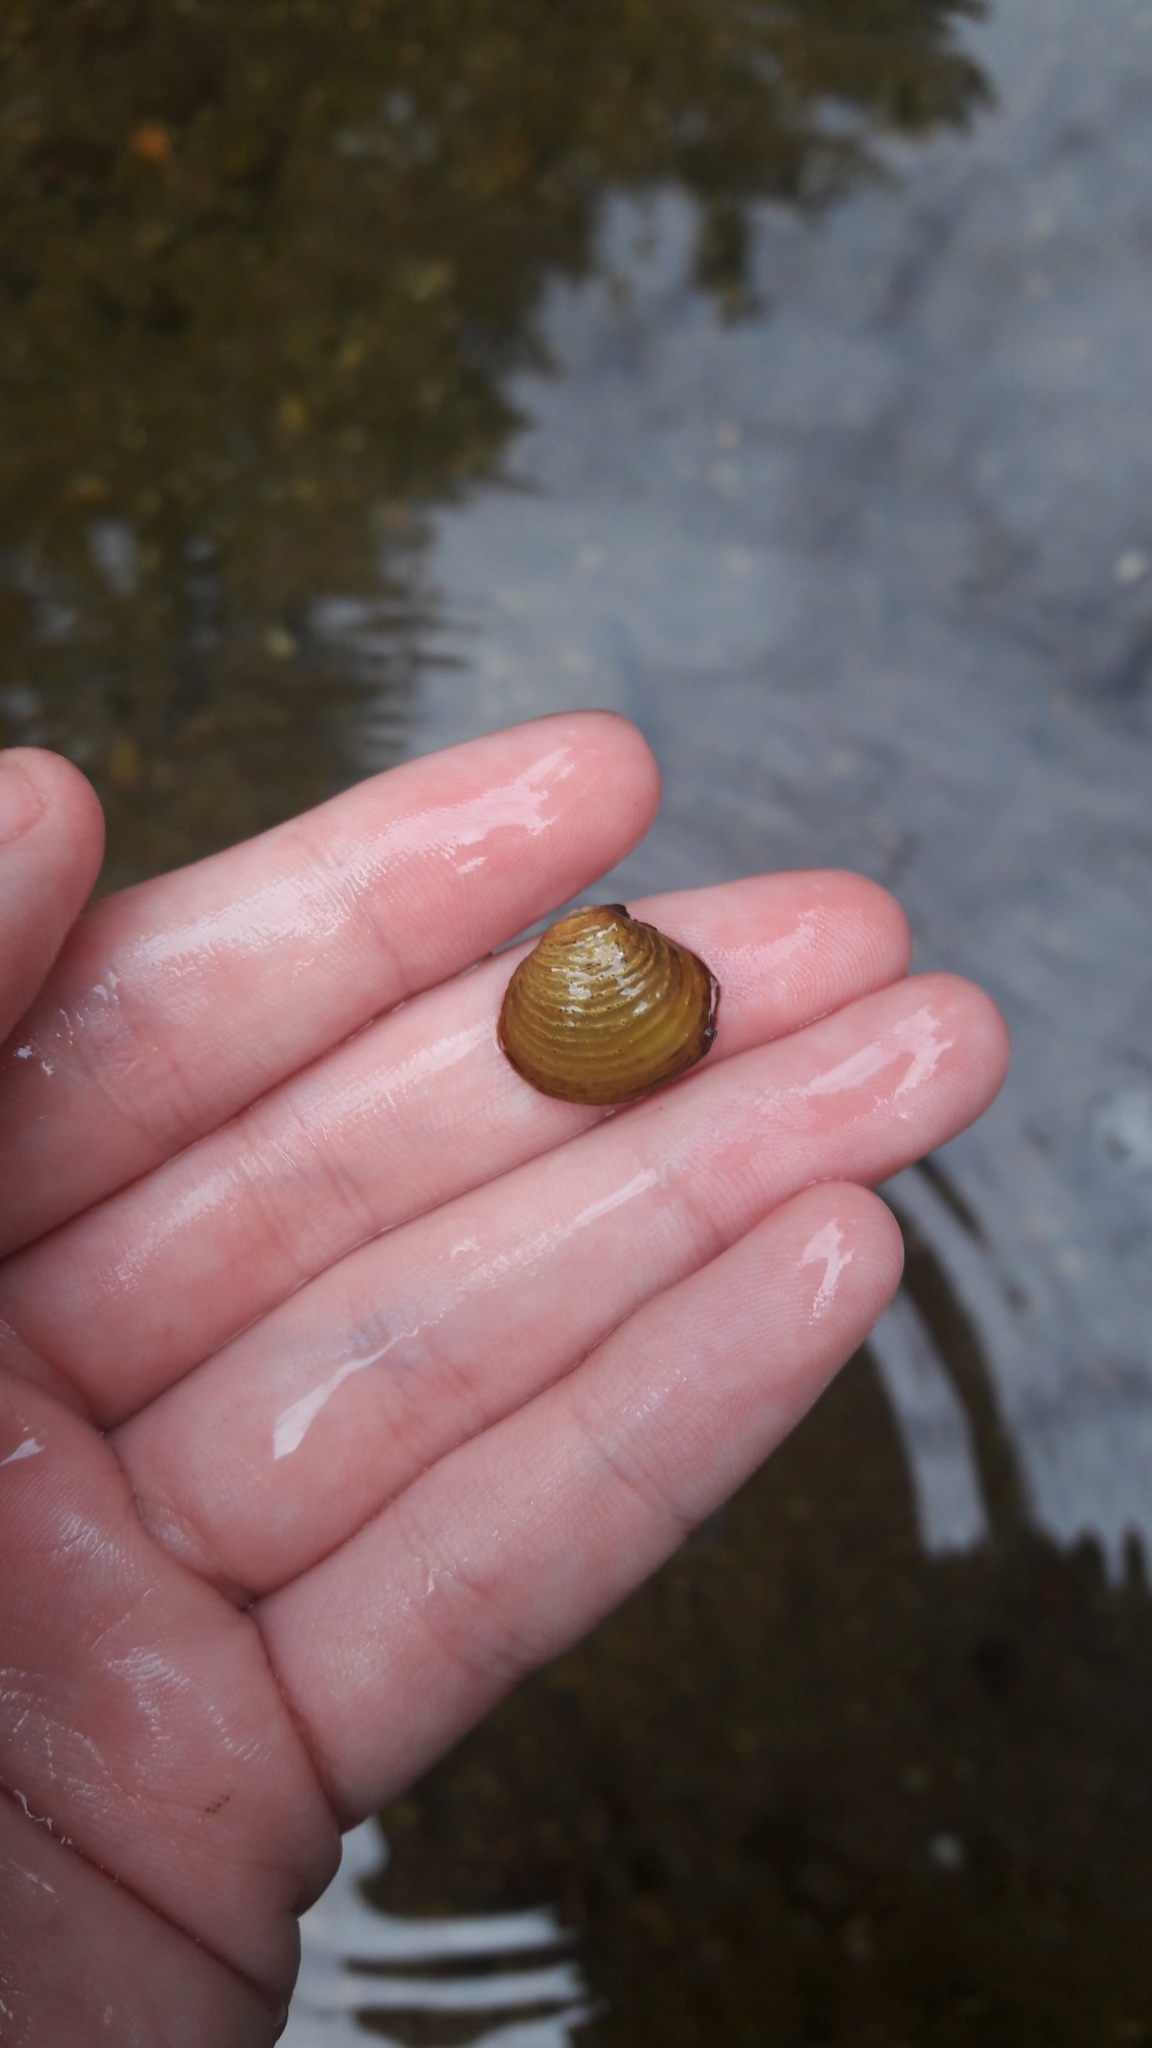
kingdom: Animalia
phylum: Mollusca
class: Bivalvia
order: Venerida
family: Cyrenidae
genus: Corbicula
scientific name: Corbicula fluminea
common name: Asian clam
